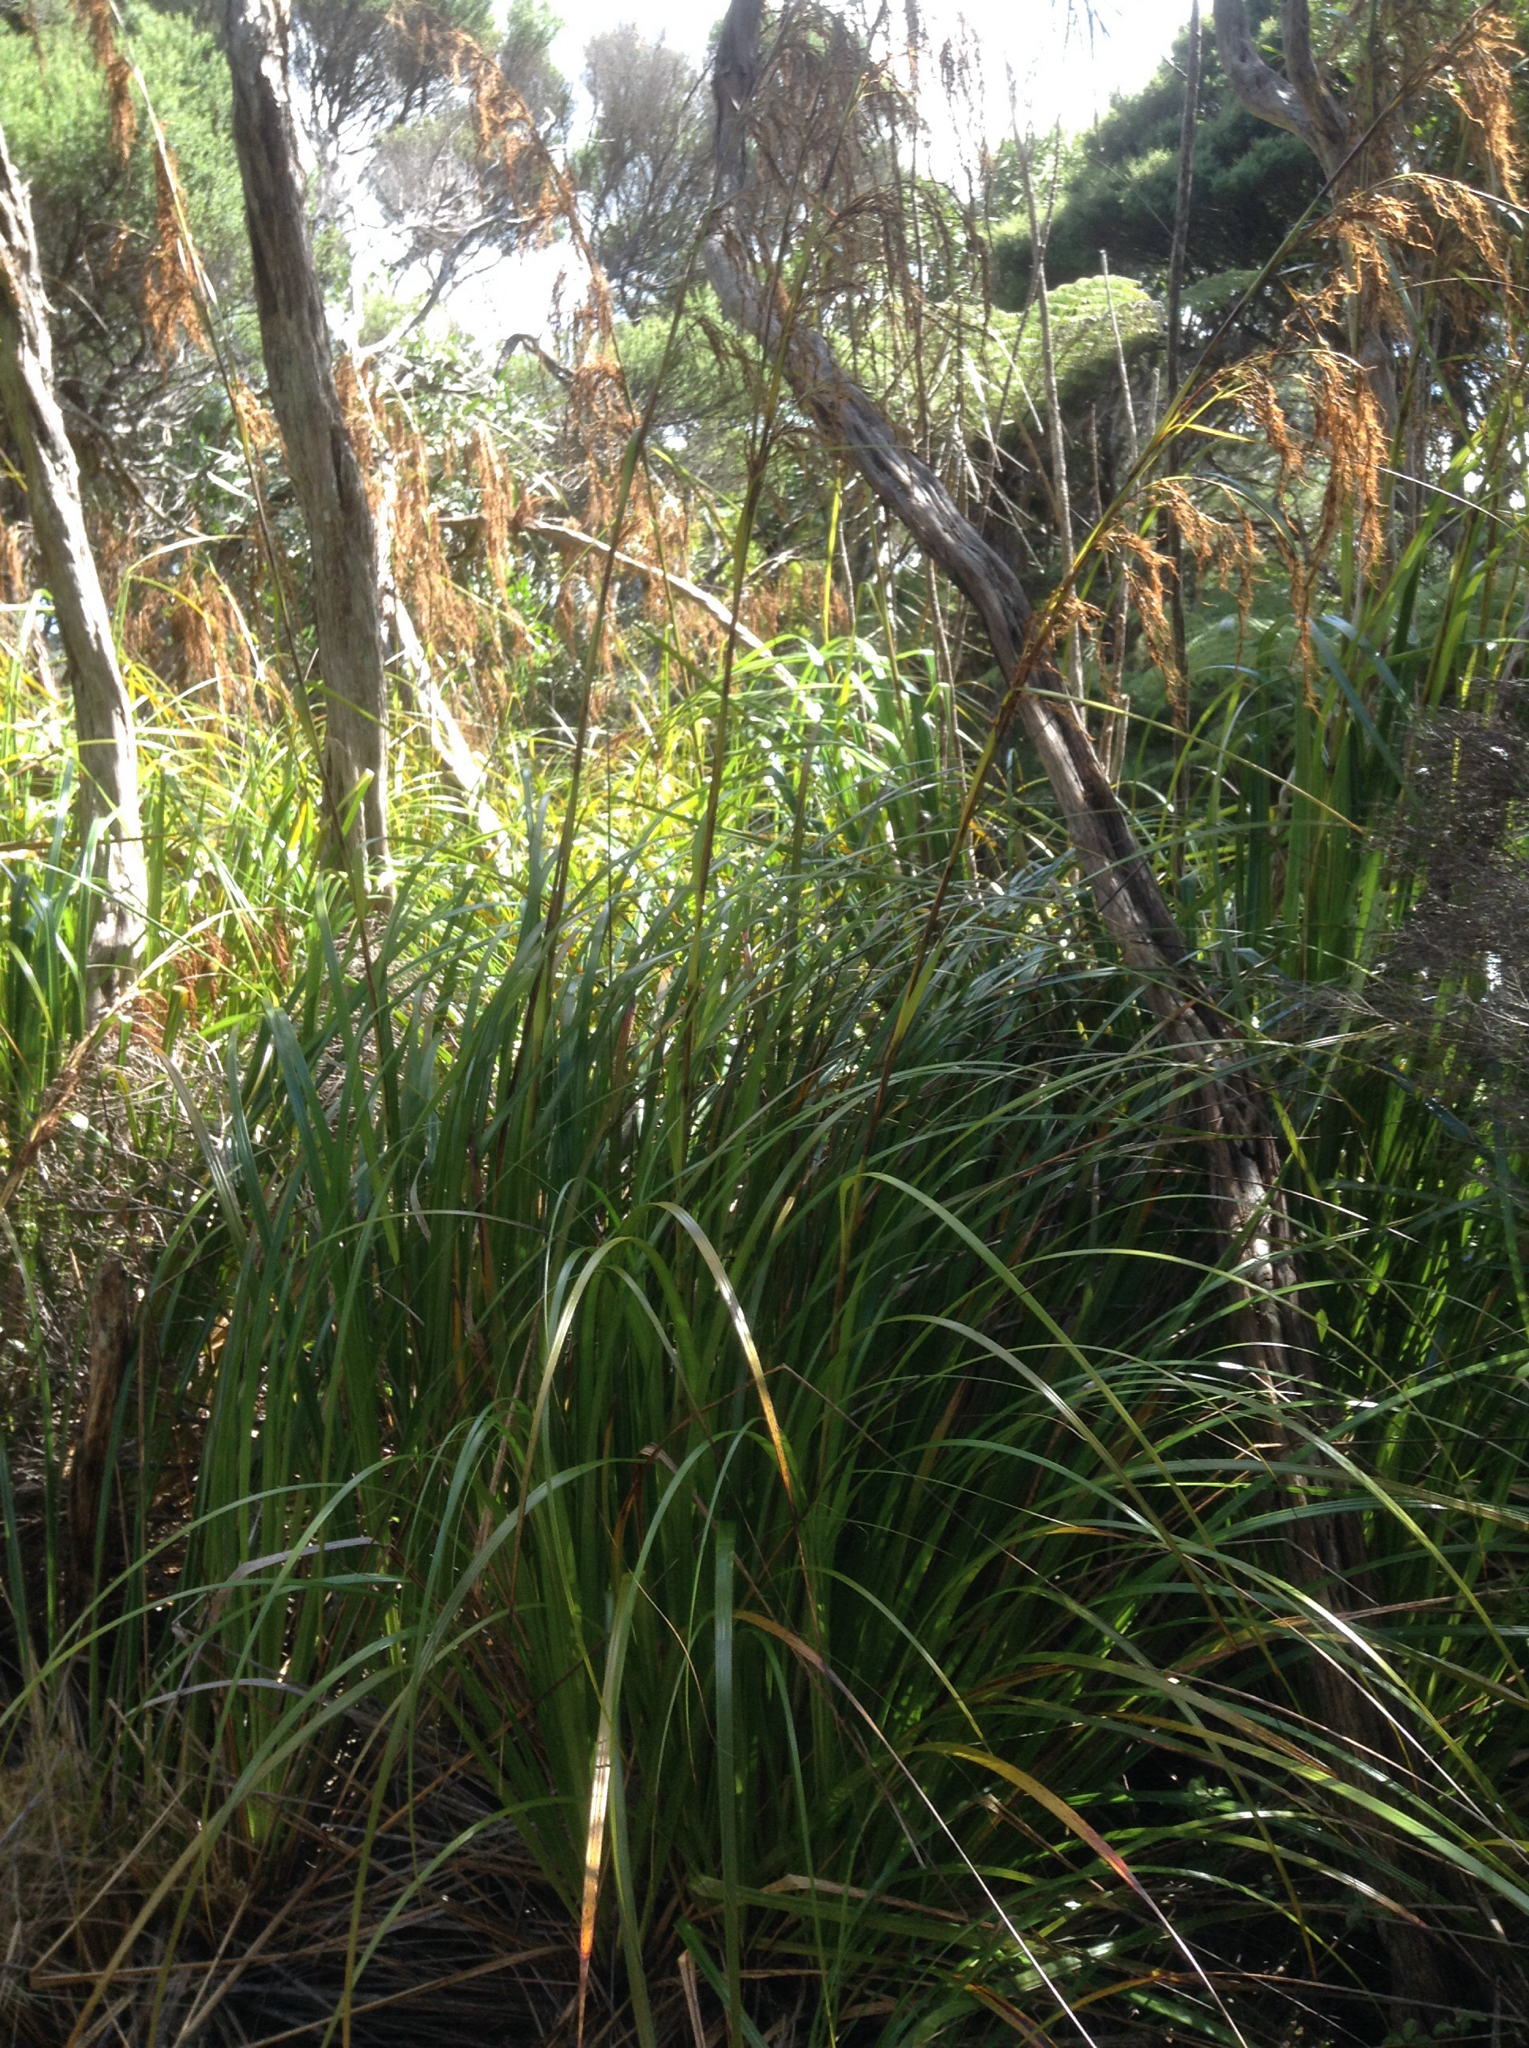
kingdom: Plantae
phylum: Tracheophyta
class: Liliopsida
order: Poales
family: Cyperaceae
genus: Gahnia
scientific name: Gahnia xanthocarpa
